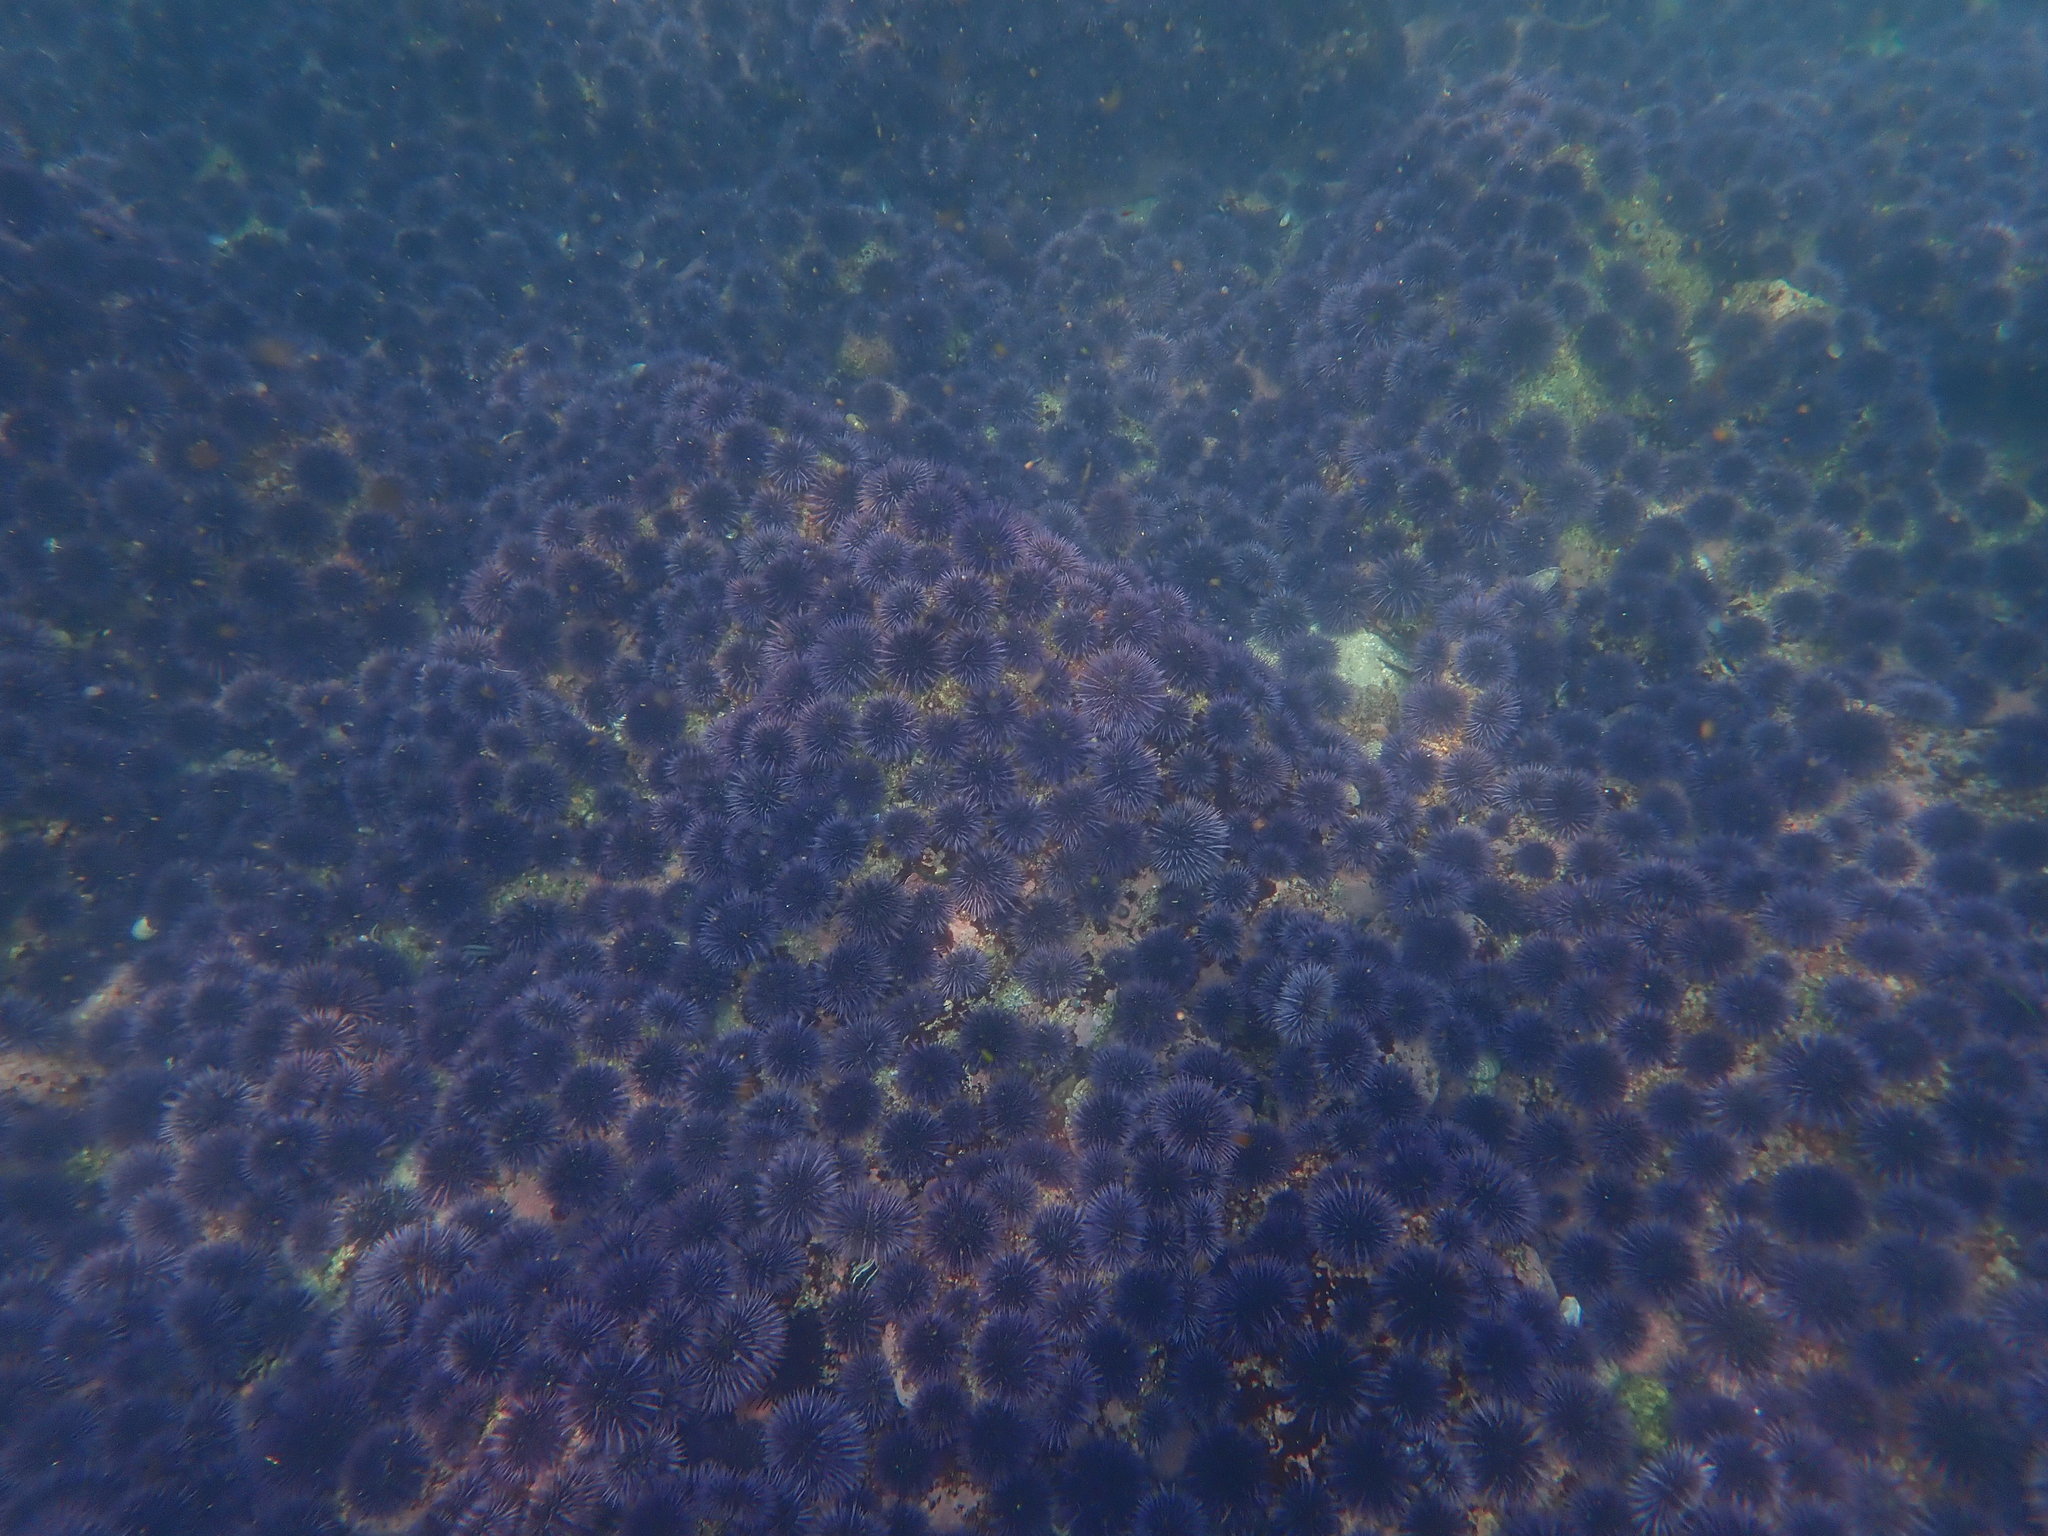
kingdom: Animalia
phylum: Echinodermata
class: Echinoidea
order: Camarodonta
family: Strongylocentrotidae
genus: Strongylocentrotus
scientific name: Strongylocentrotus purpuratus
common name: Purple sea urchin
